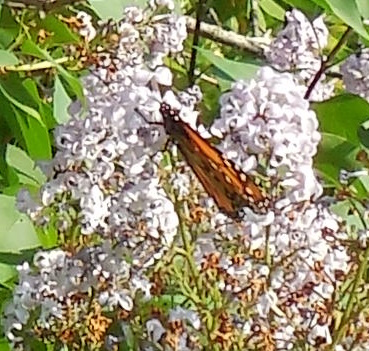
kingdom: Animalia
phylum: Arthropoda
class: Insecta
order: Lepidoptera
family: Nymphalidae
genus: Danaus
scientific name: Danaus plexippus
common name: Monarch
